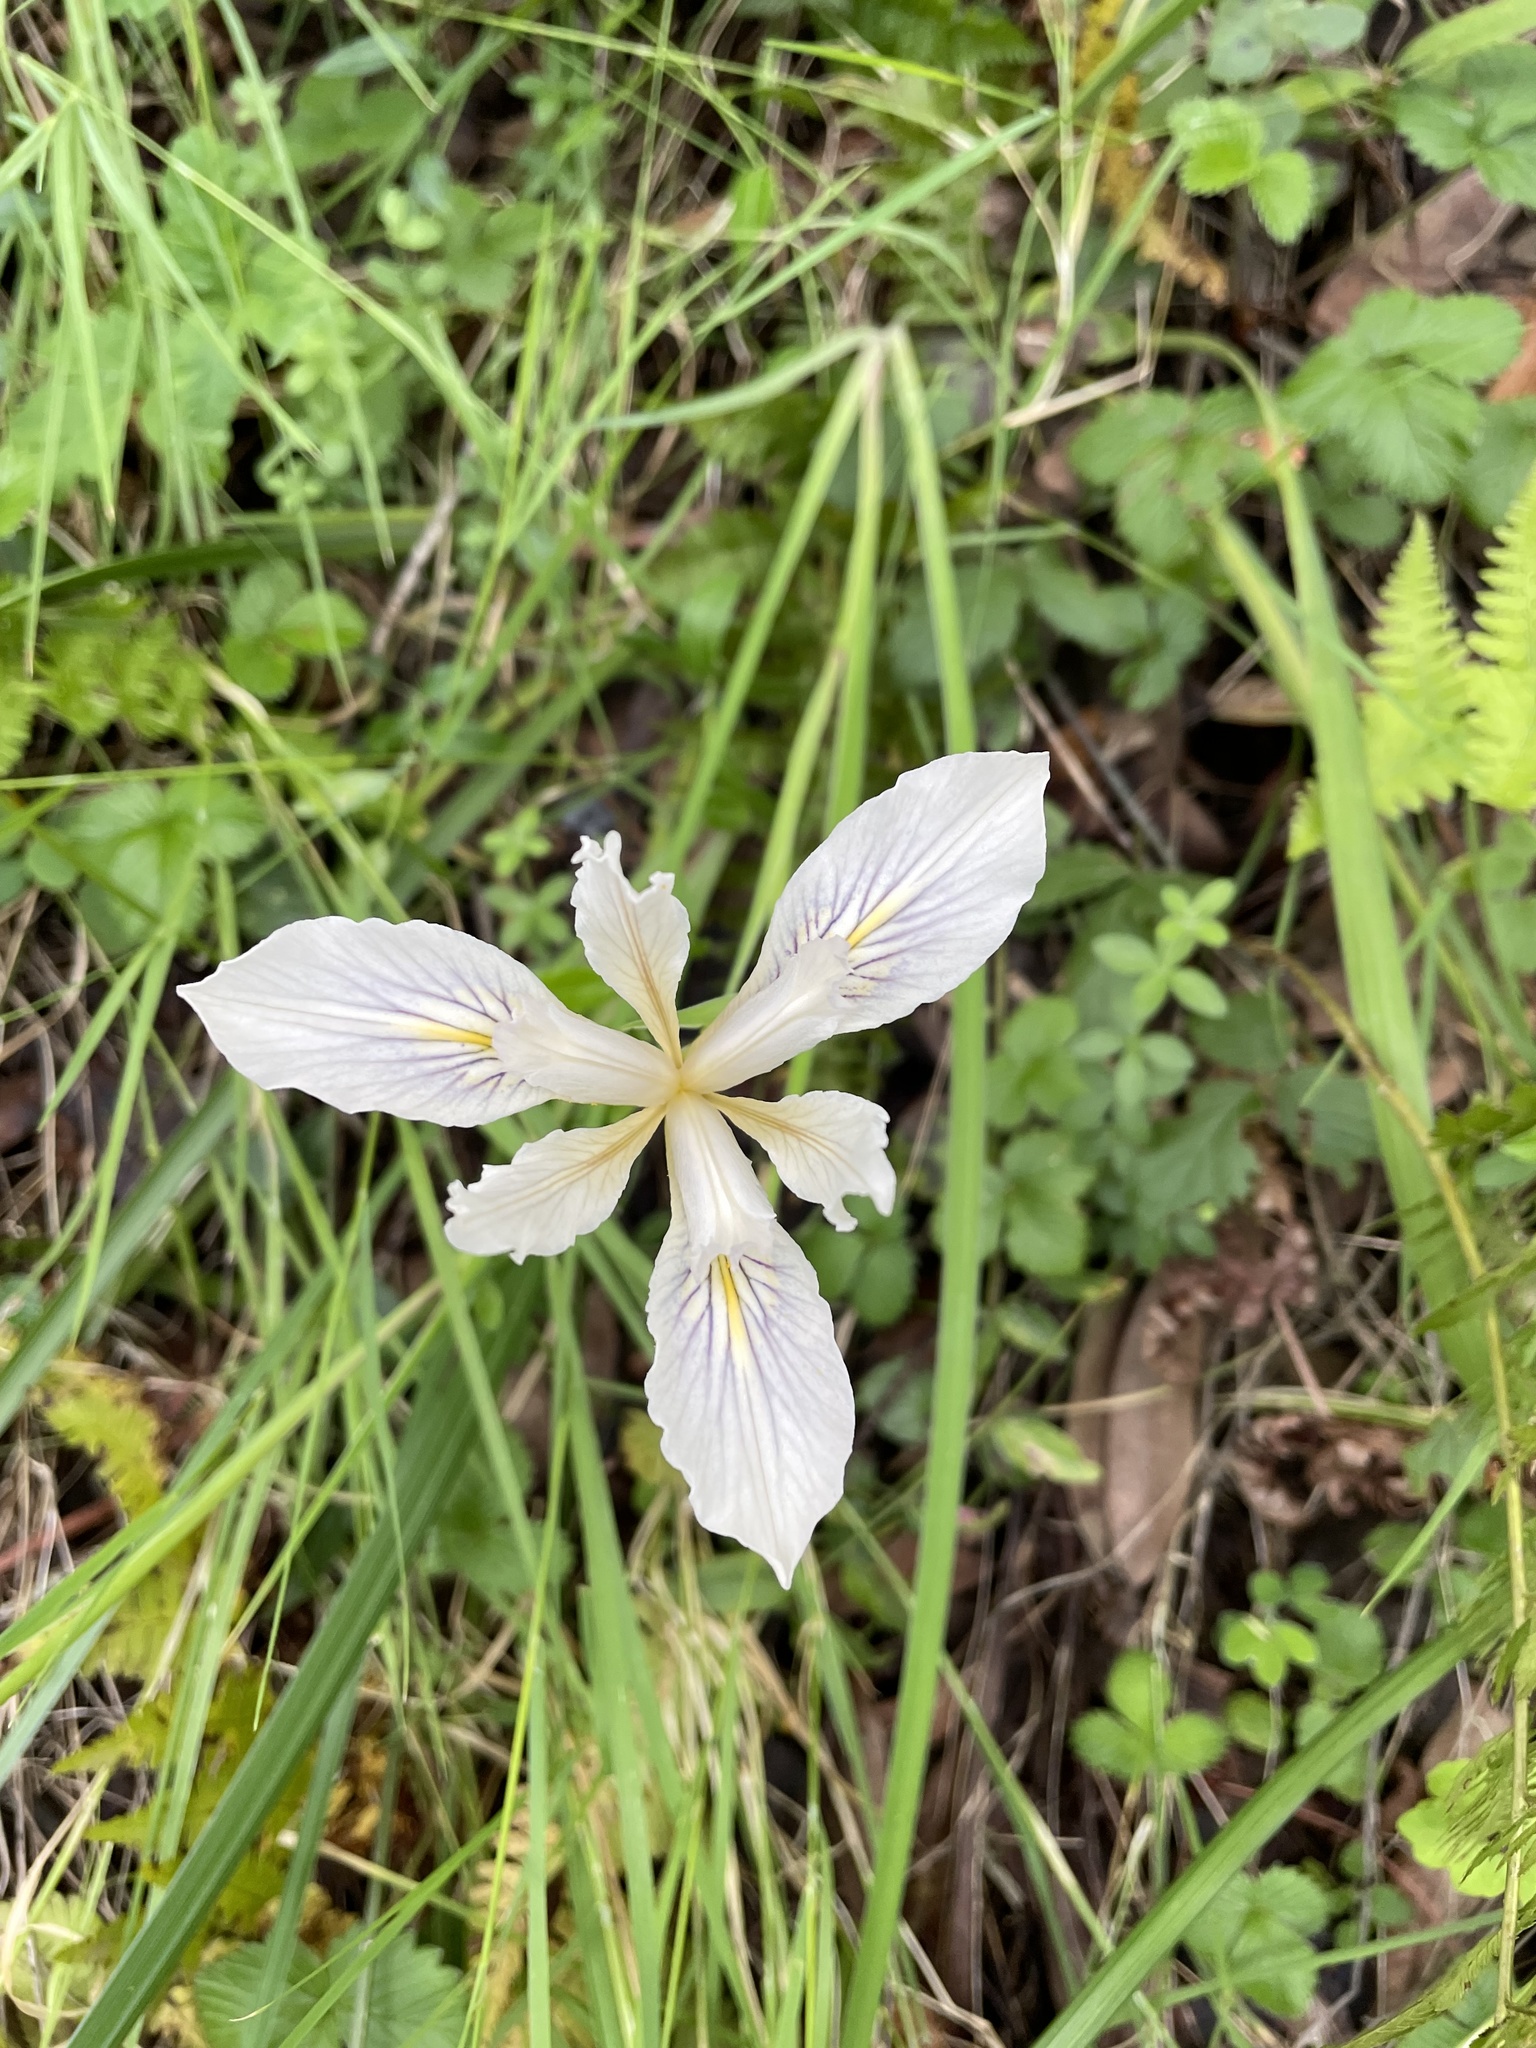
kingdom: Plantae
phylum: Tracheophyta
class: Liliopsida
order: Asparagales
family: Iridaceae
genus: Iris
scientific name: Iris douglasiana
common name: Marin iris
